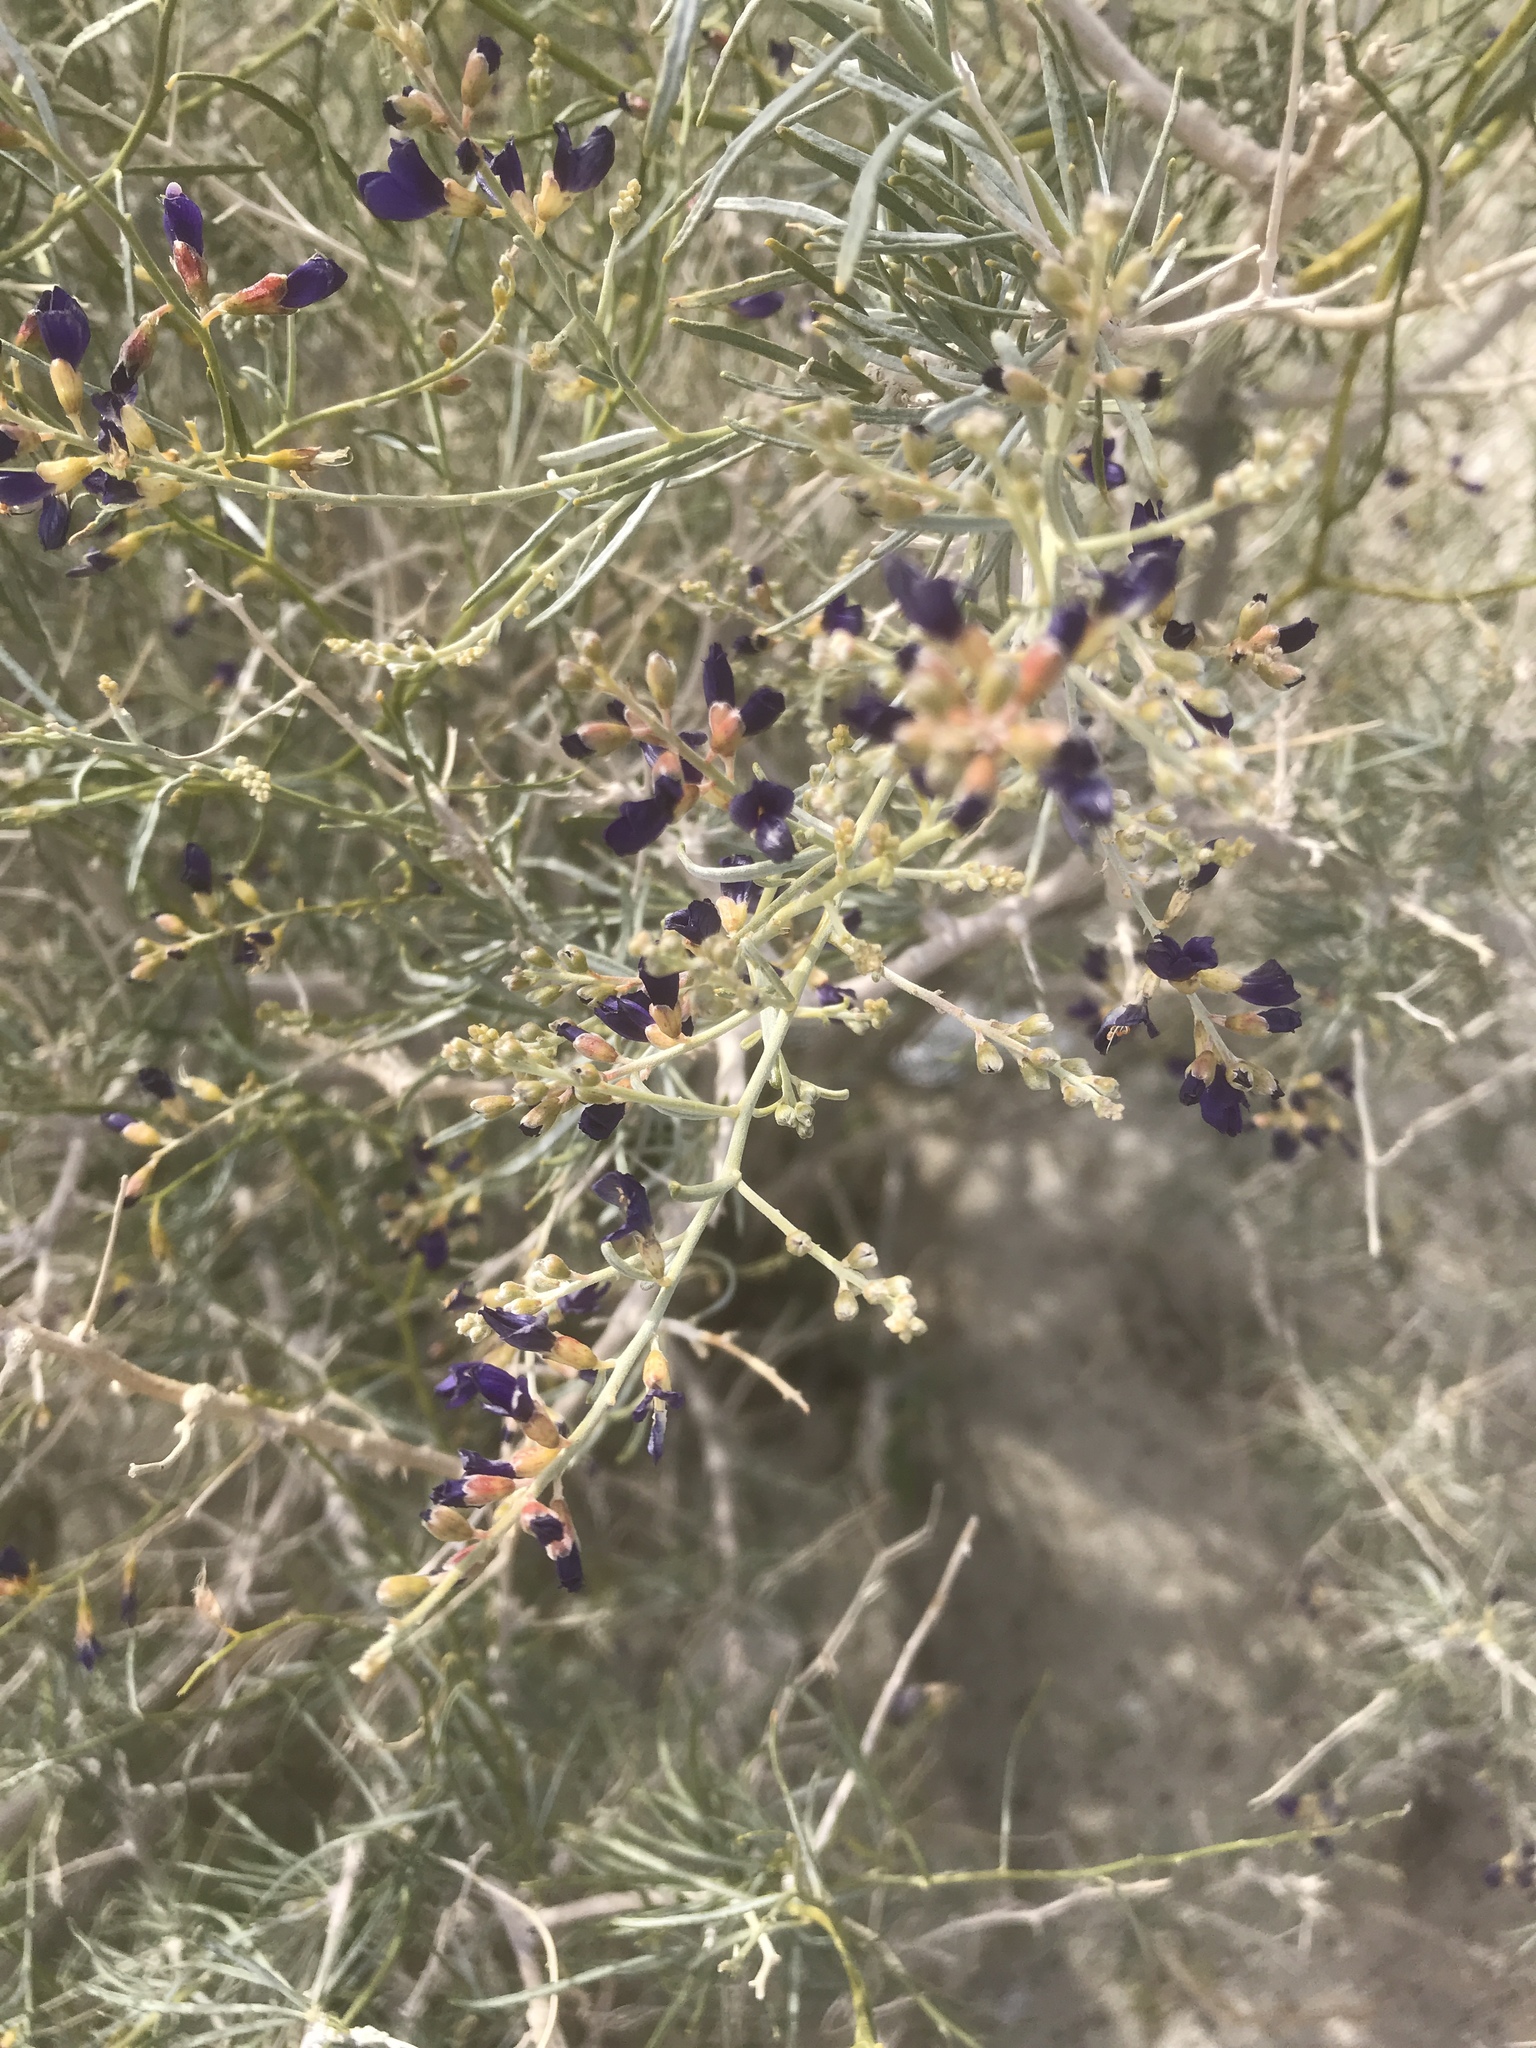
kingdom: Plantae
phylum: Tracheophyta
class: Magnoliopsida
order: Fabales
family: Fabaceae
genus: Psorothamnus
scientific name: Psorothamnus schottii
